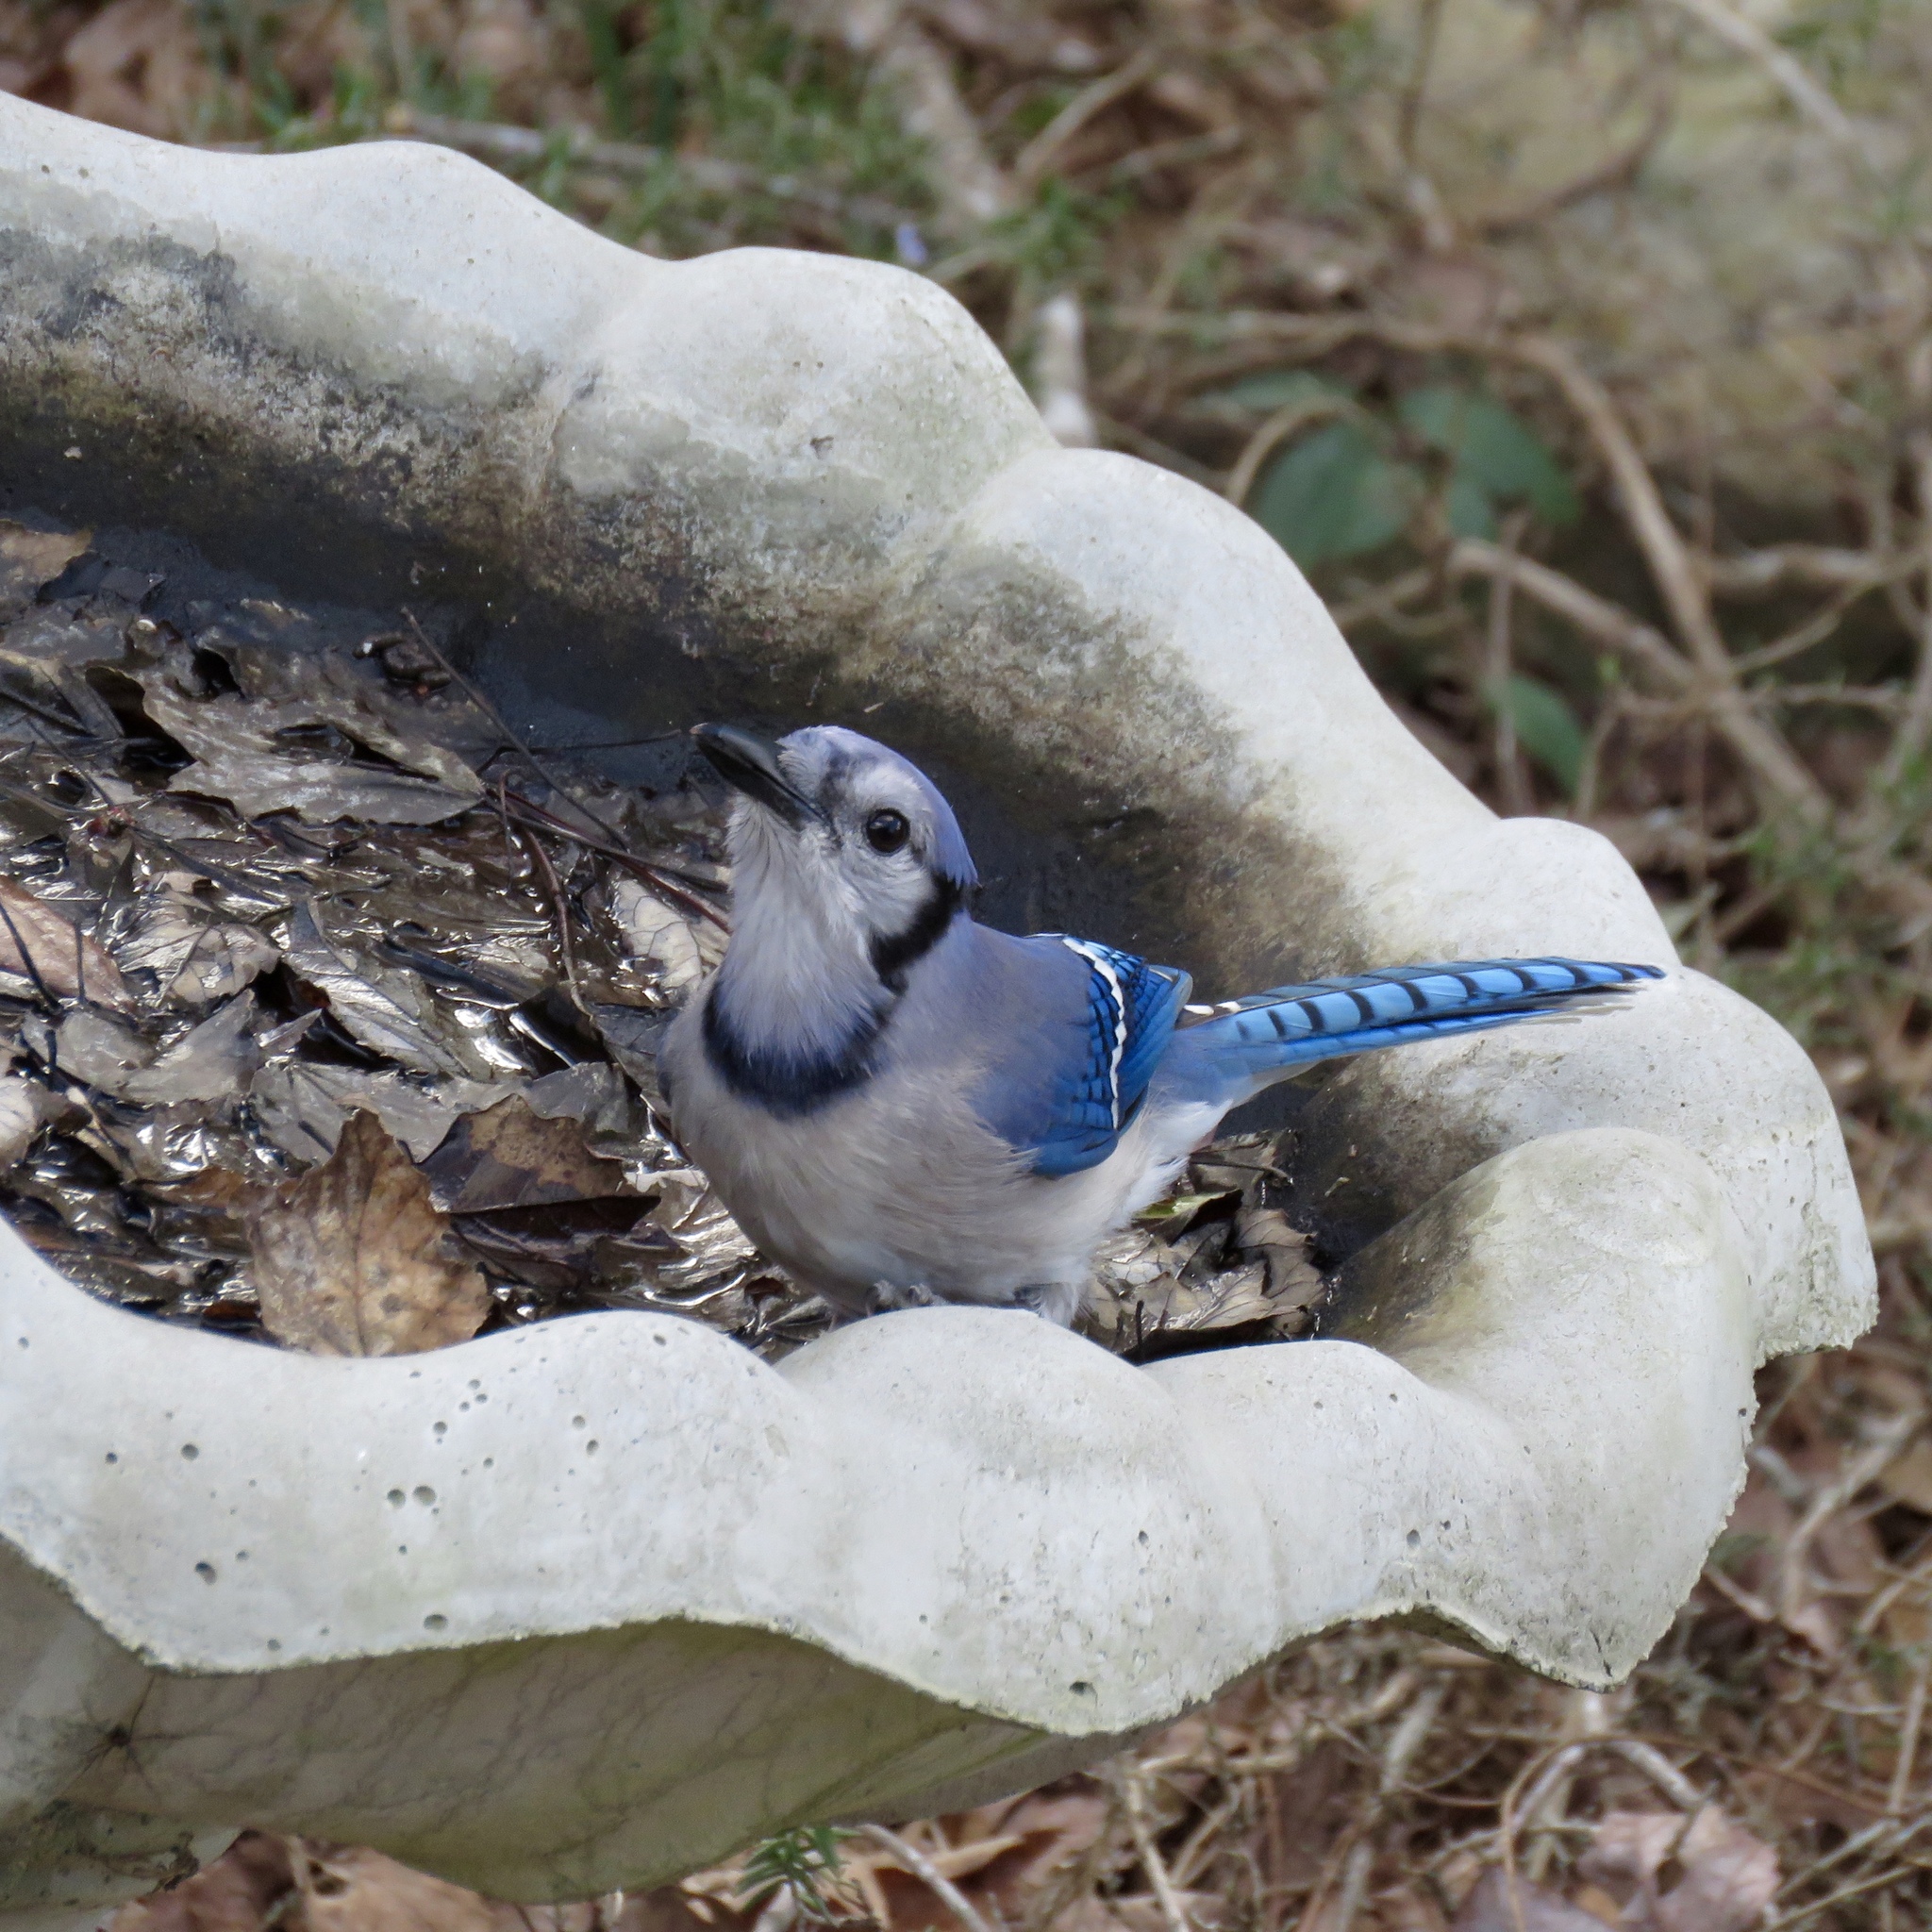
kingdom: Animalia
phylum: Chordata
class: Aves
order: Passeriformes
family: Corvidae
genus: Cyanocitta
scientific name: Cyanocitta cristata
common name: Blue jay
